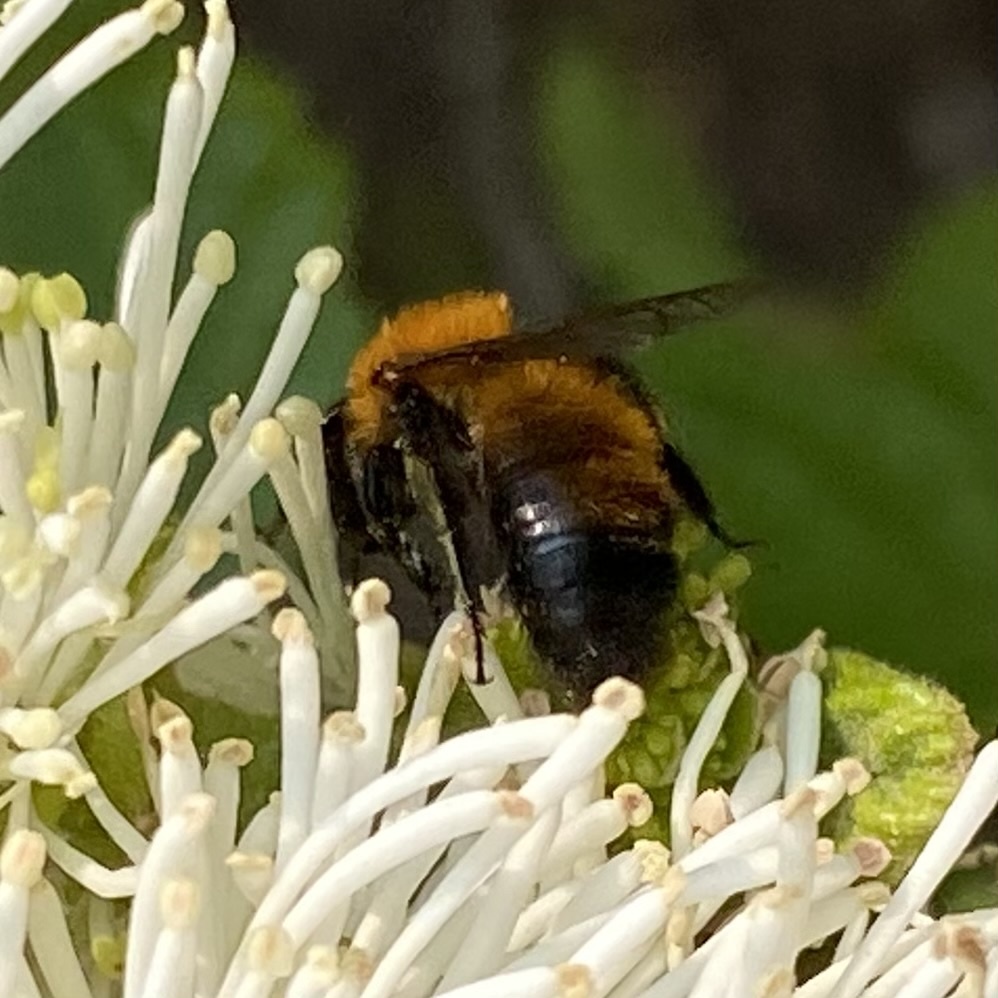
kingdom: Animalia
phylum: Arthropoda
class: Insecta
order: Hymenoptera
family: Andrenidae
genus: Andrena
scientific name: Andrena milwaukeensis
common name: Milwaukee mining bee
